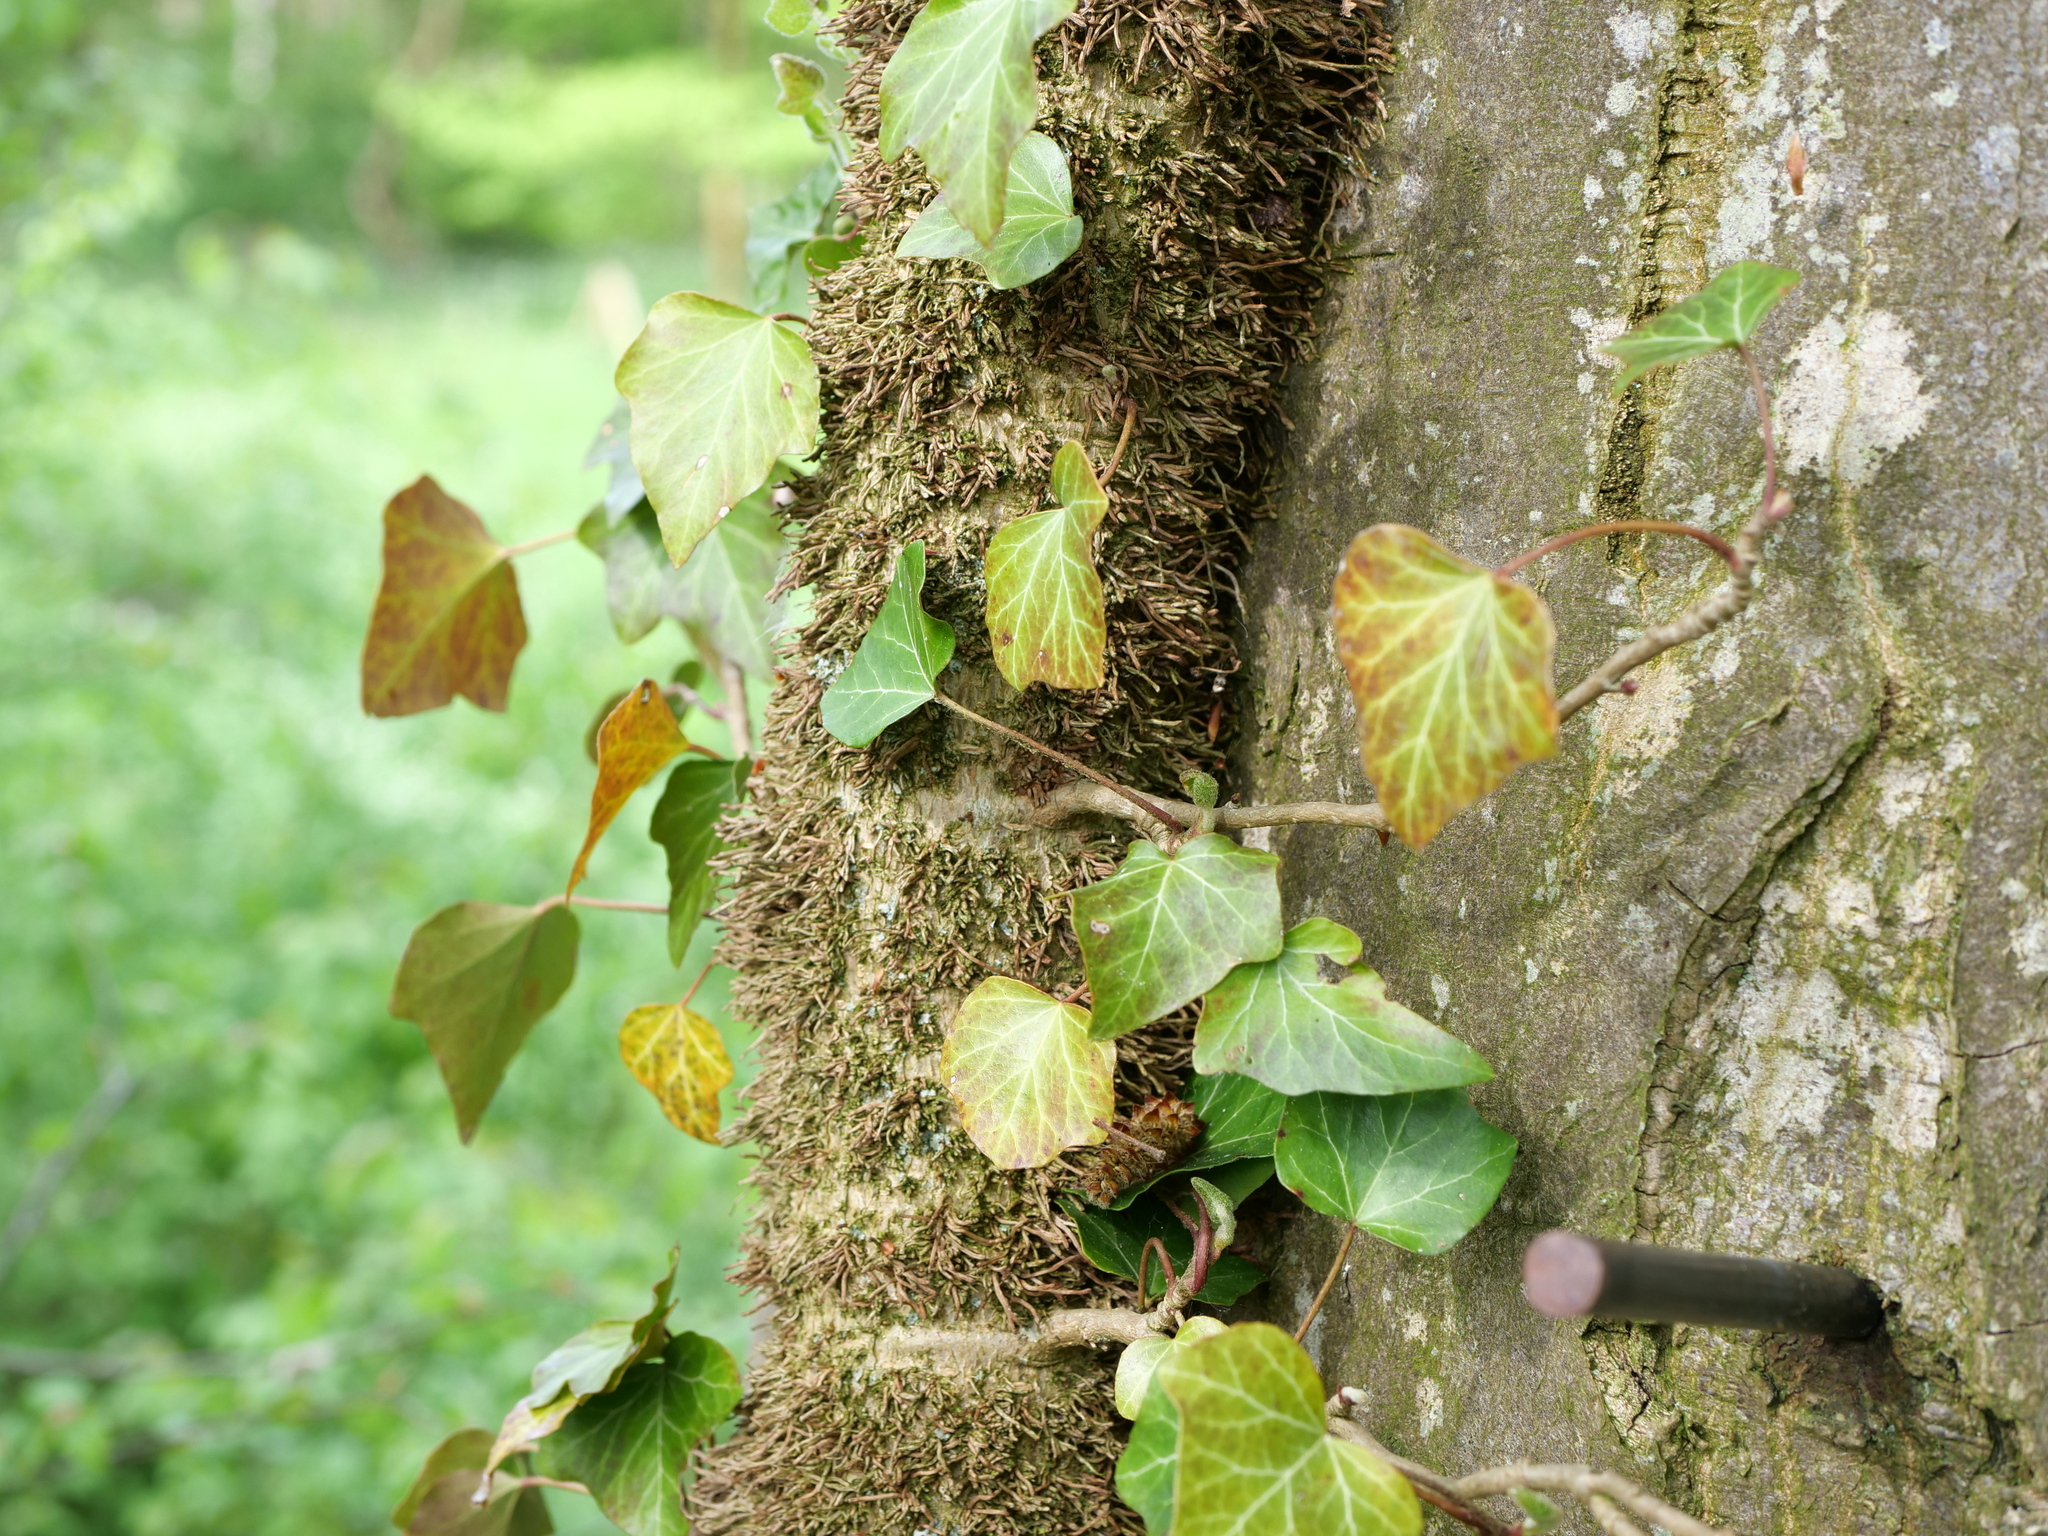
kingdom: Plantae
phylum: Tracheophyta
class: Magnoliopsida
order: Apiales
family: Araliaceae
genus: Hedera
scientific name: Hedera helix
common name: Ivy
